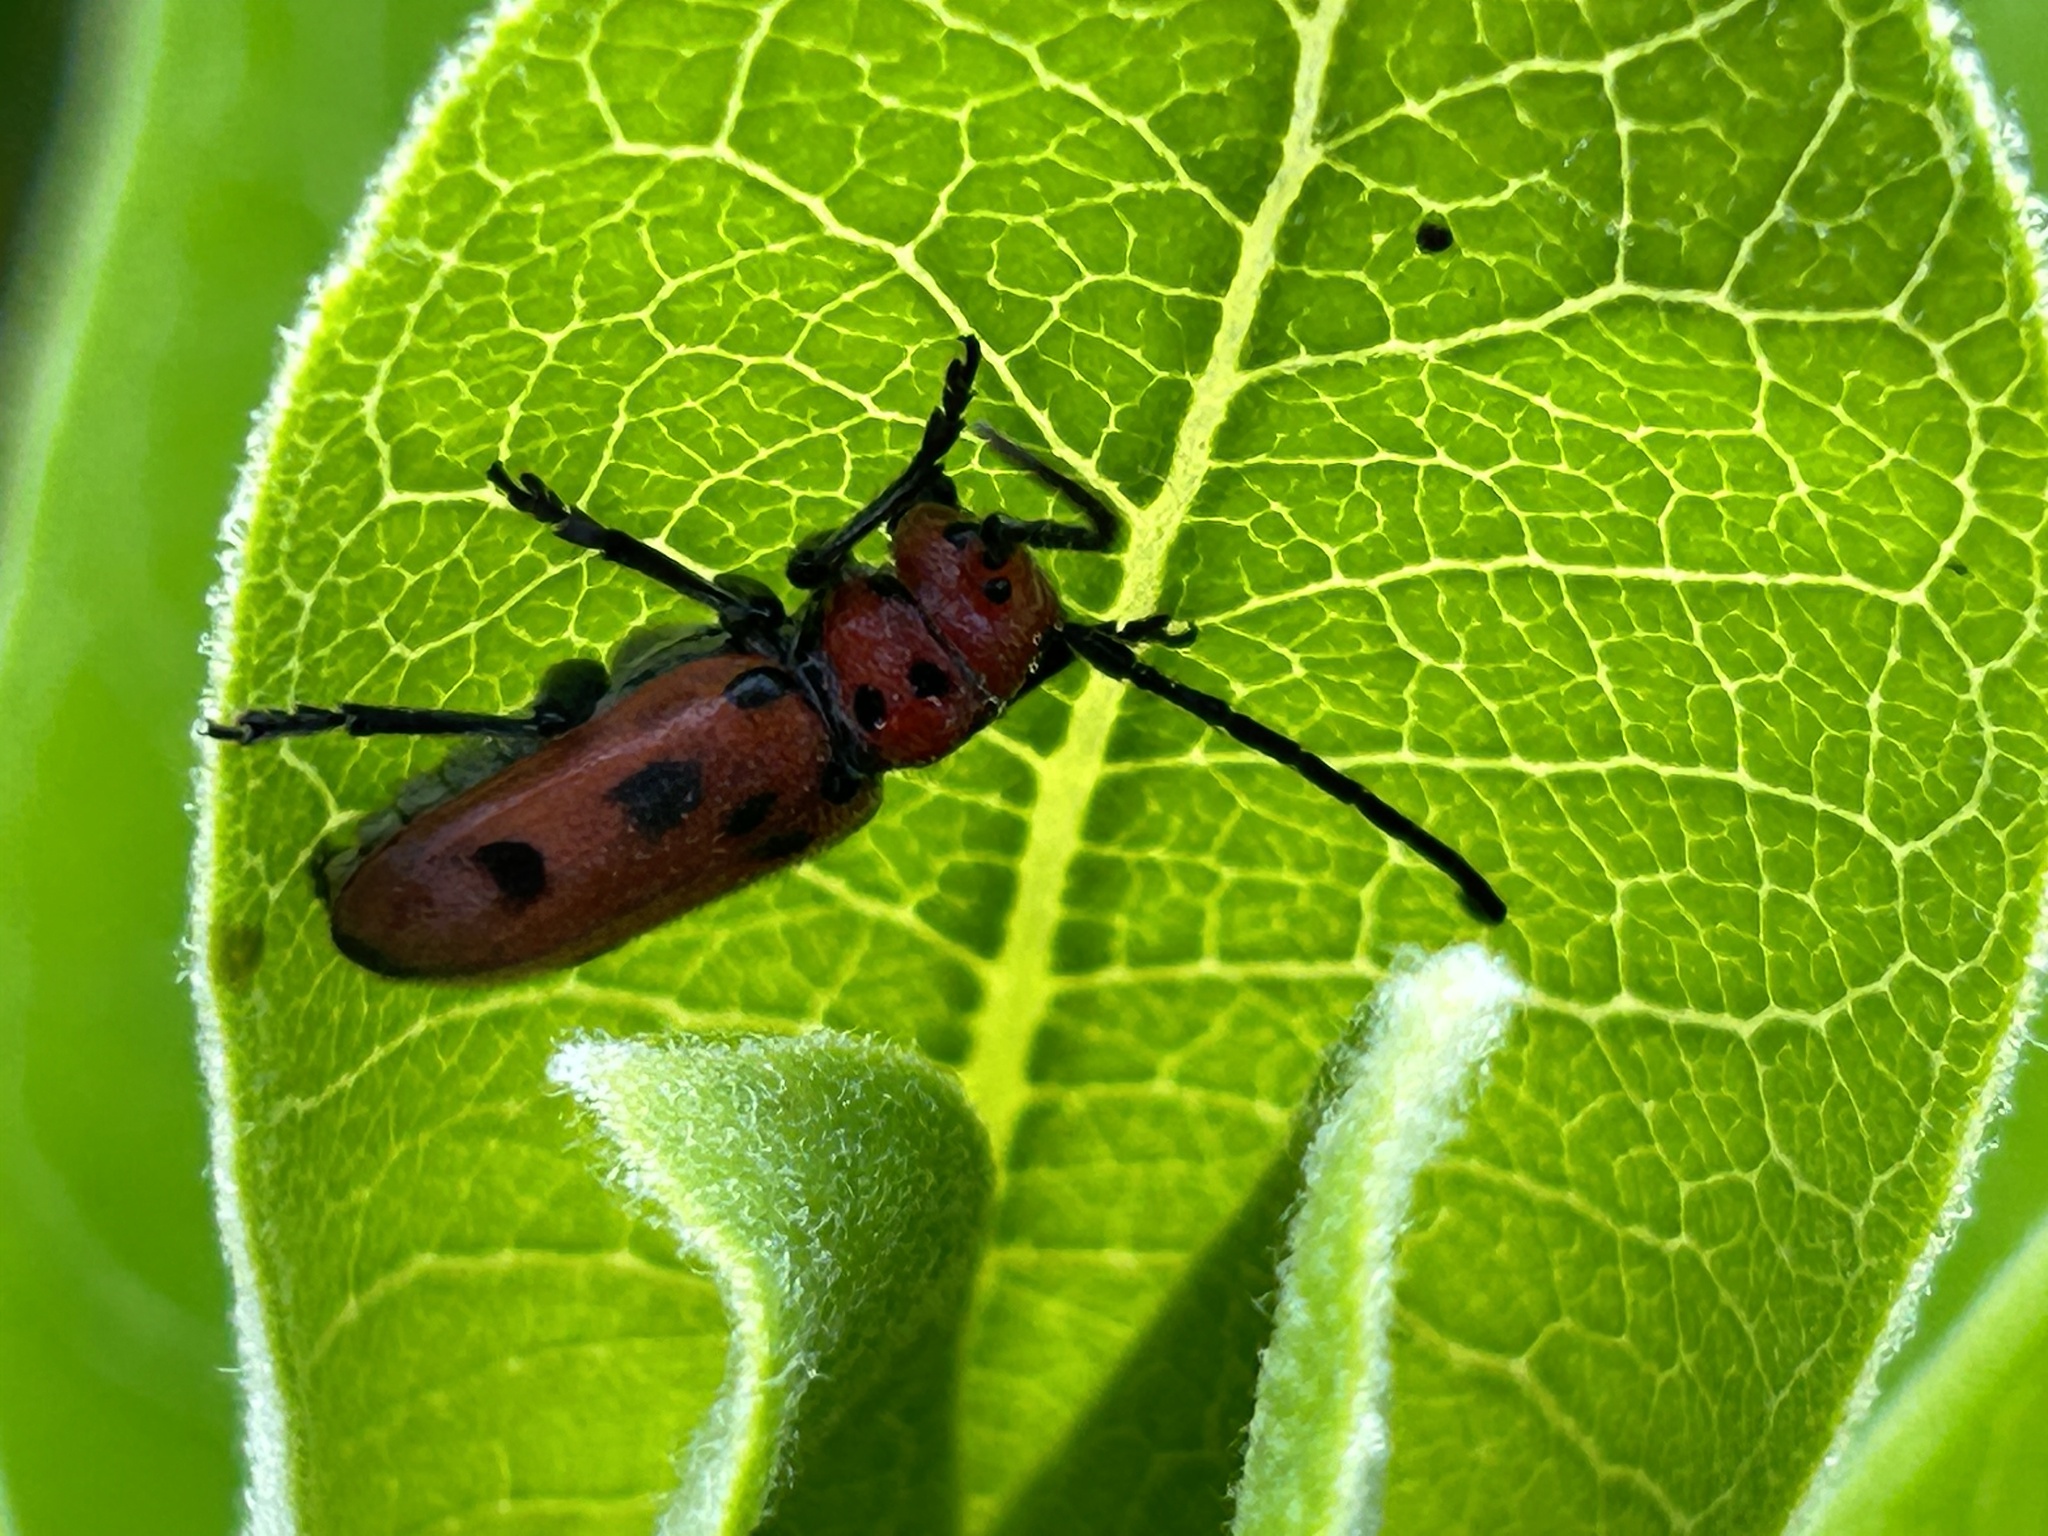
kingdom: Animalia
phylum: Arthropoda
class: Insecta
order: Coleoptera
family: Cerambycidae
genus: Tetraopes
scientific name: Tetraopes tetrophthalmus
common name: Red milkweed beetle
